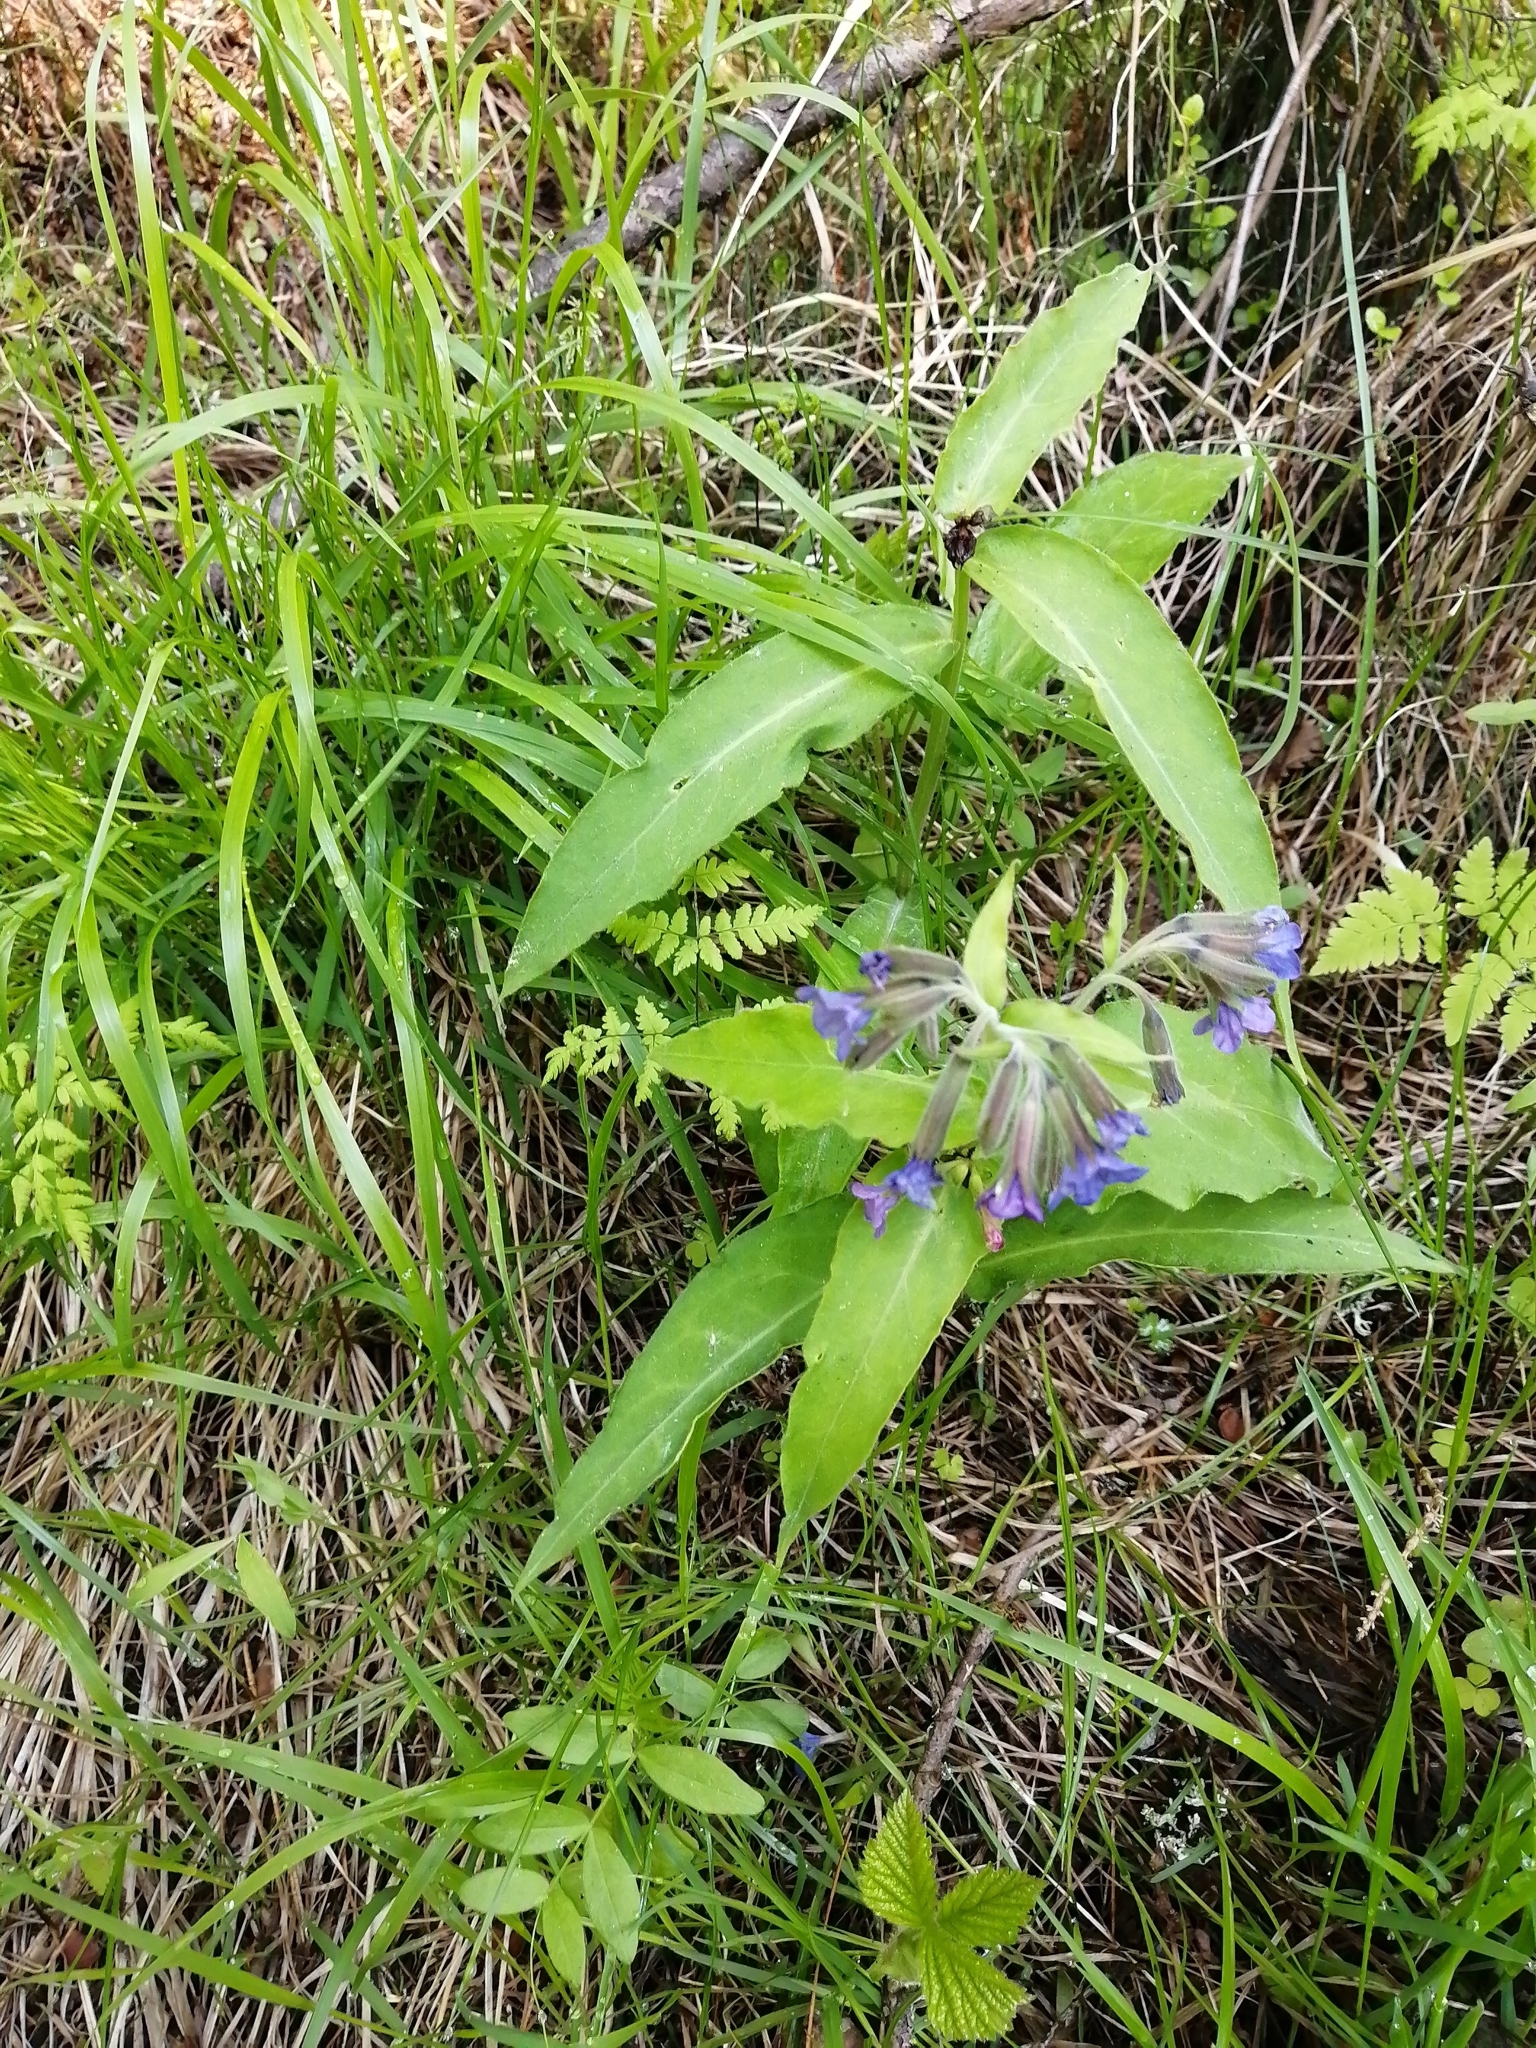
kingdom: Plantae
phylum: Tracheophyta
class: Magnoliopsida
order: Boraginales
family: Boraginaceae
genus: Pulmonaria
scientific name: Pulmonaria mollis
